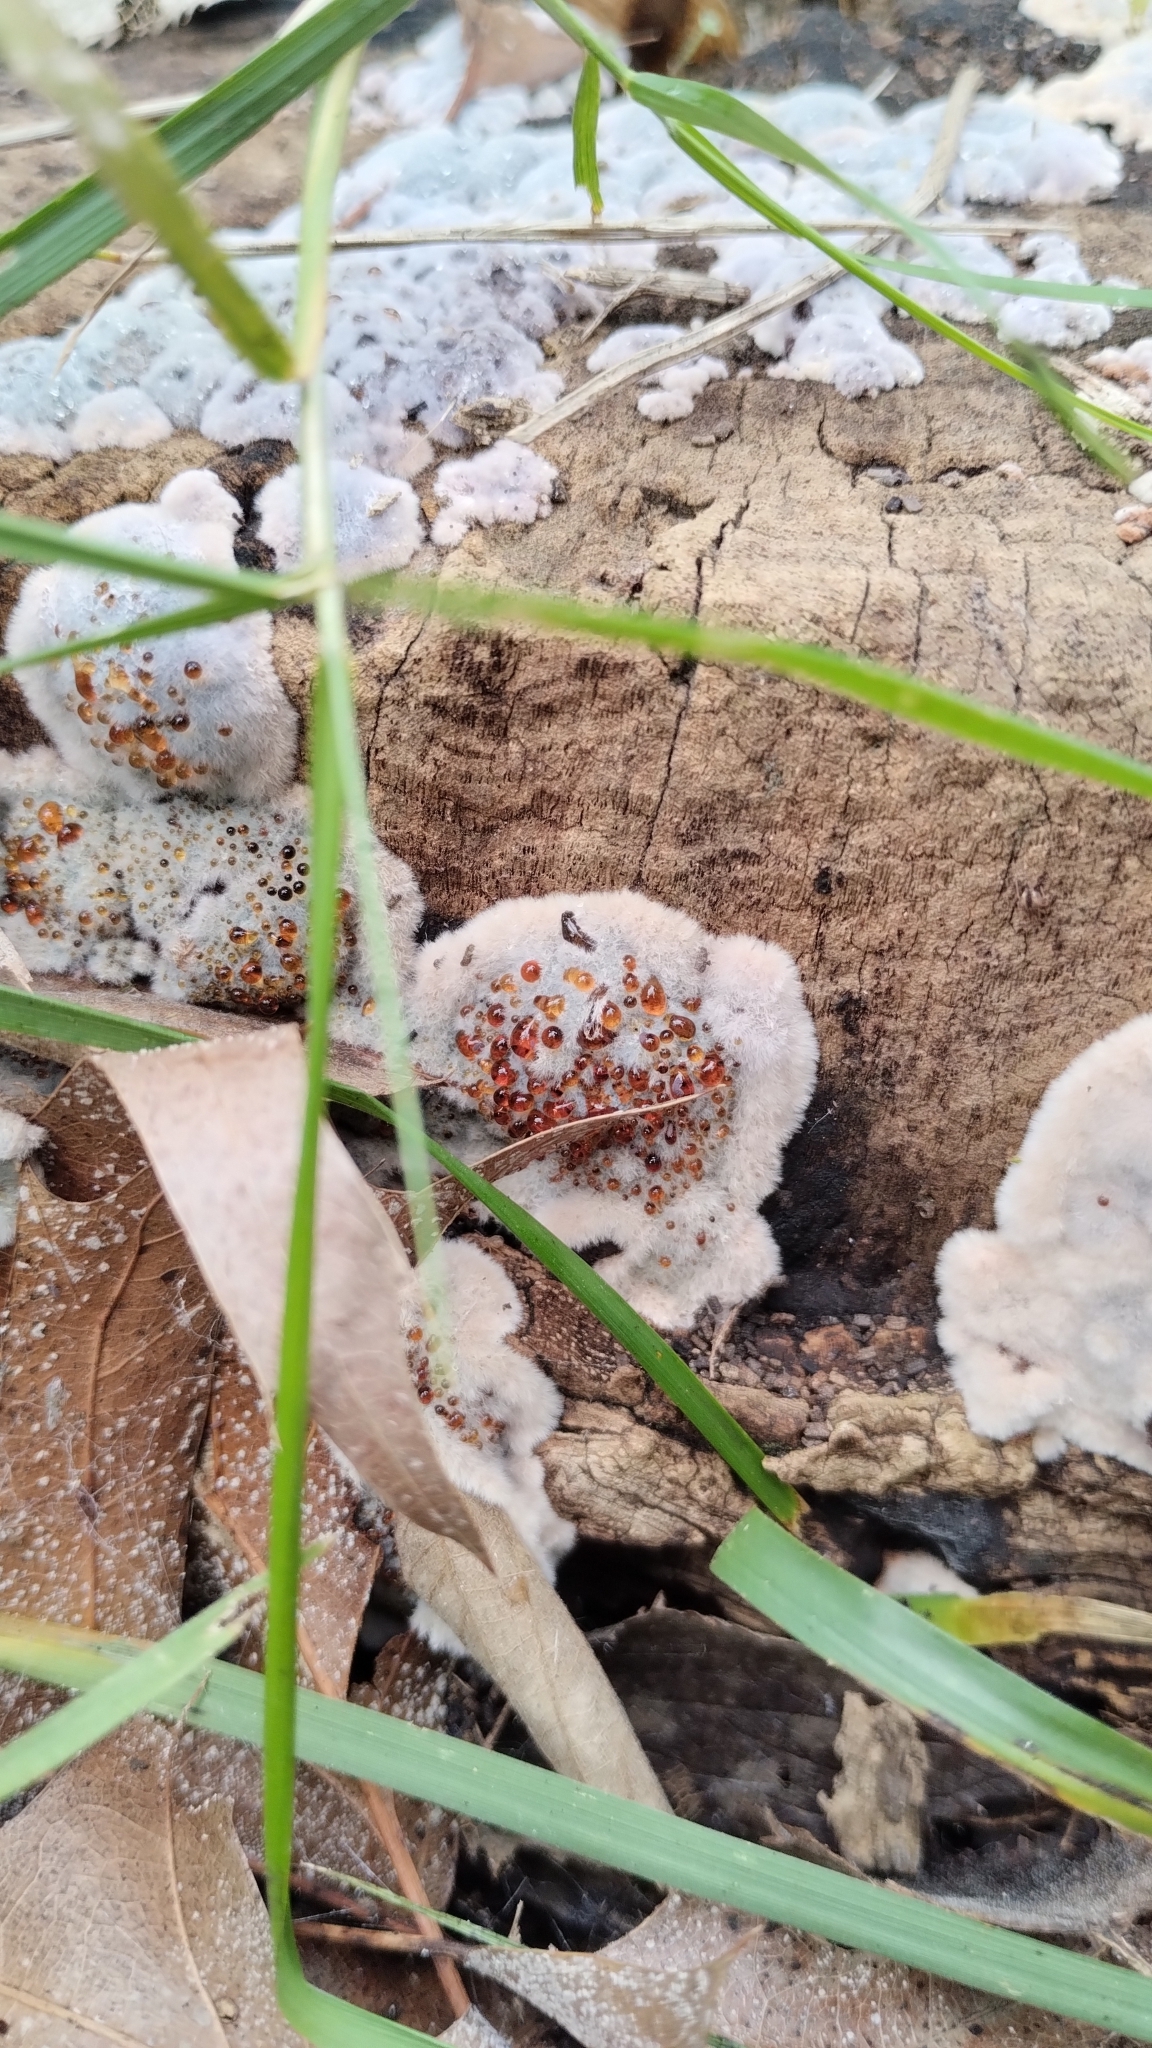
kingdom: Fungi
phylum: Basidiomycota
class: Agaricomycetes
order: Corticiales
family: Punctulariaceae
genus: Punctularia
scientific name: Punctularia atropurpurascens
